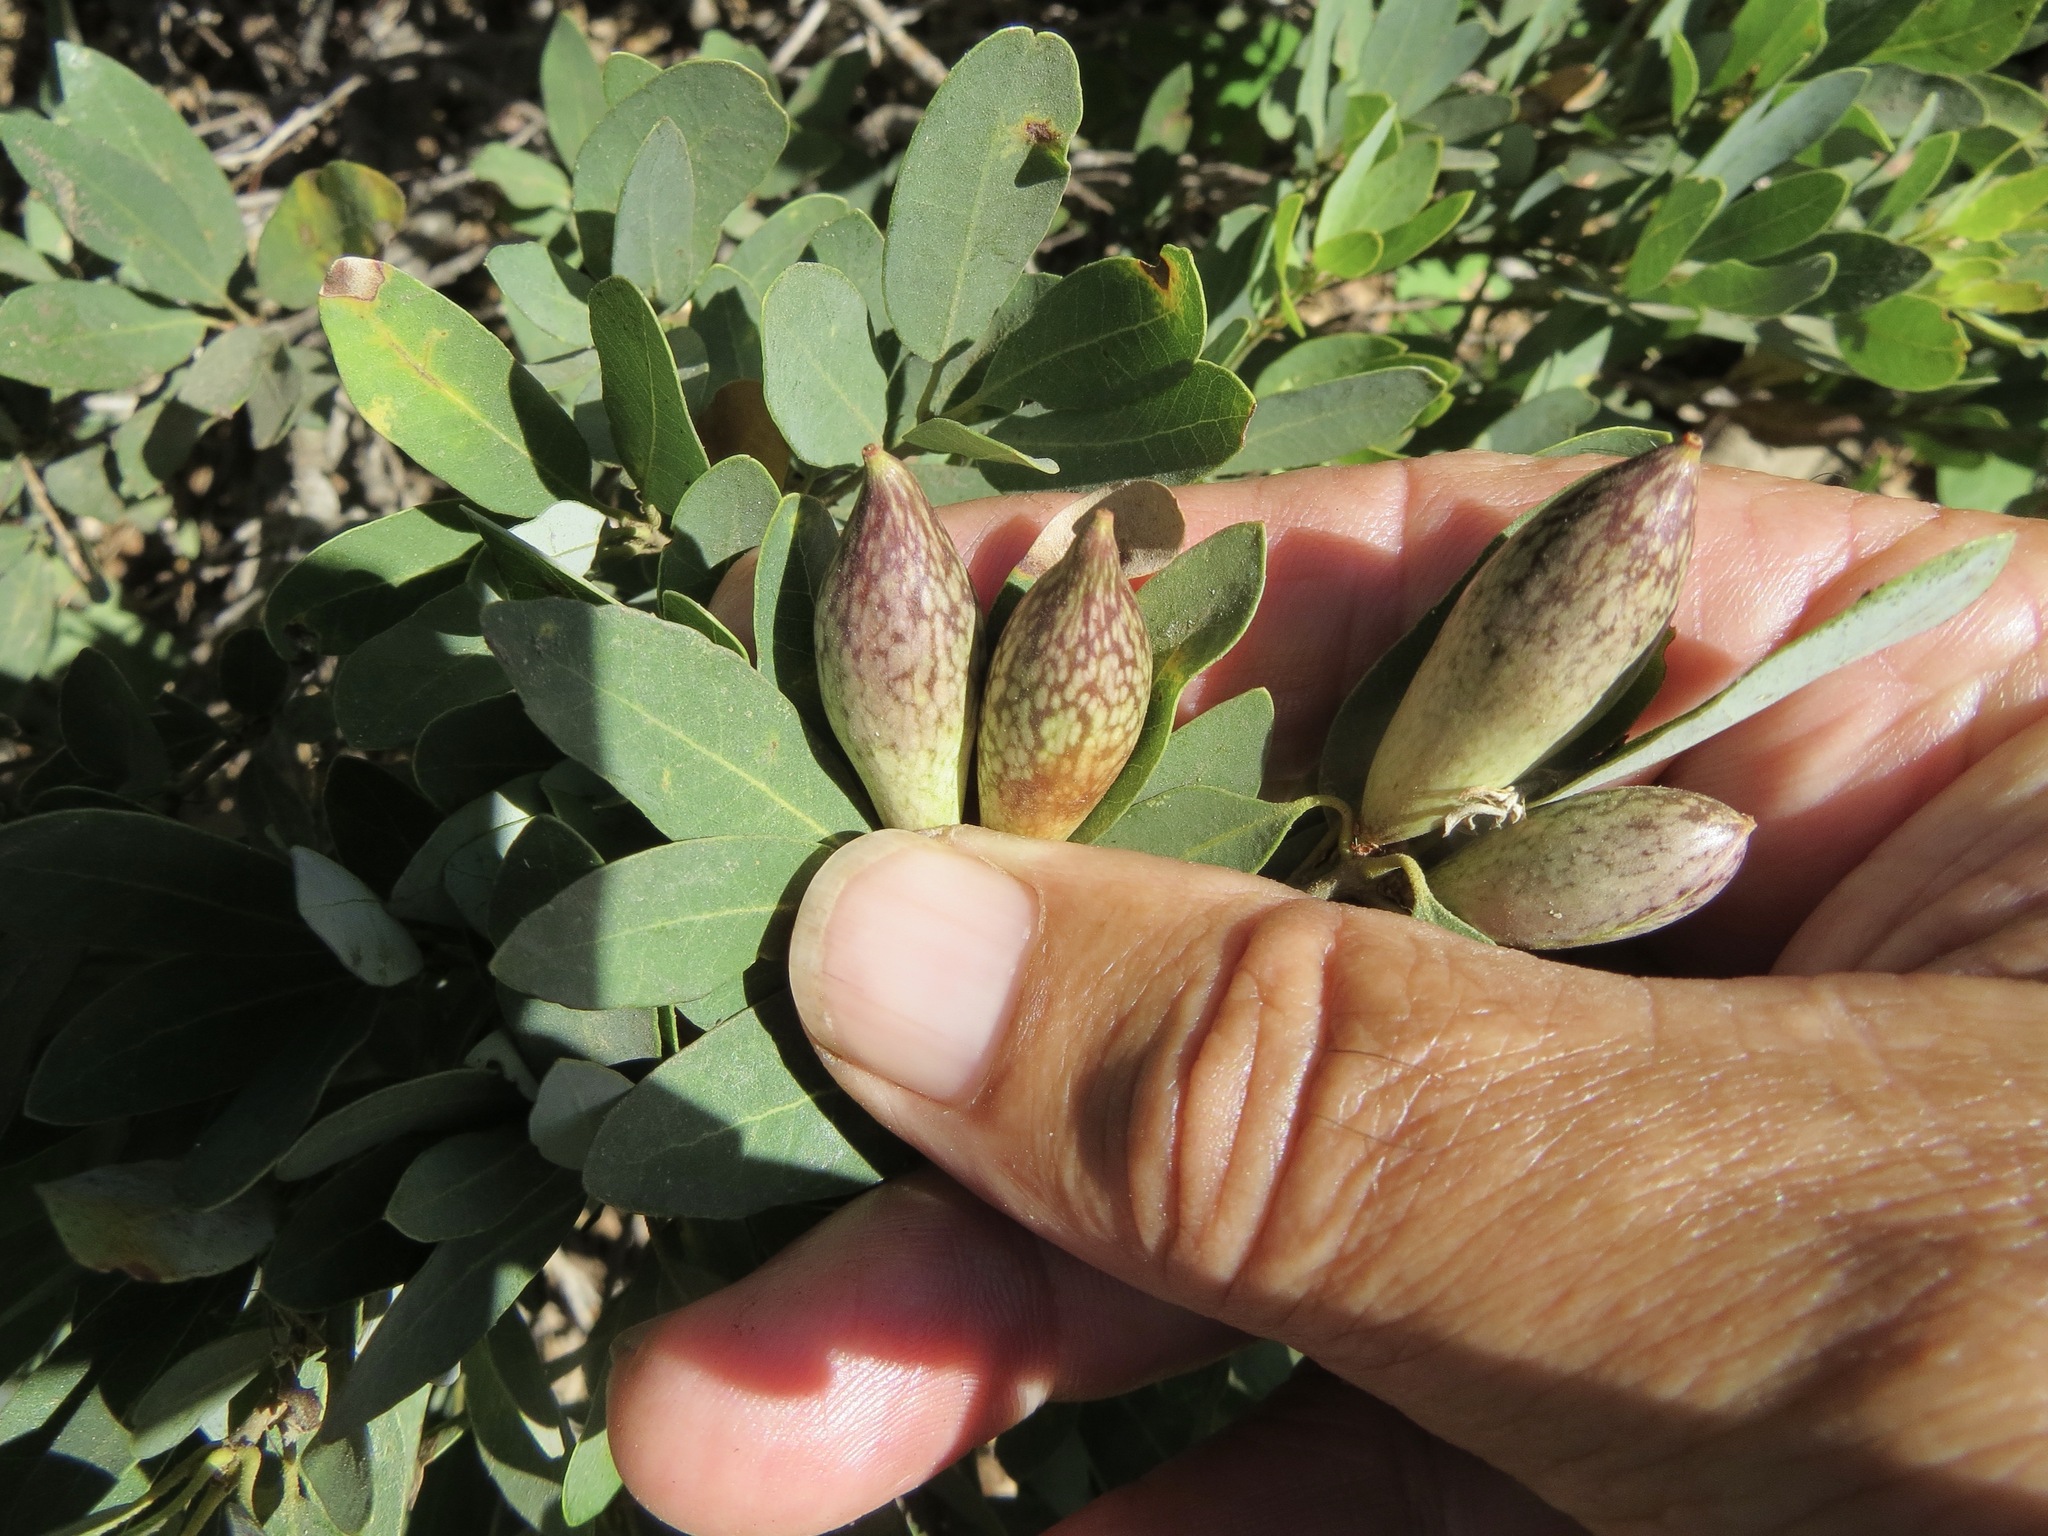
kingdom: Animalia
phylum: Arthropoda
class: Insecta
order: Hymenoptera
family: Cynipidae
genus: Heteroecus
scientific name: Heteroecus pacificus
